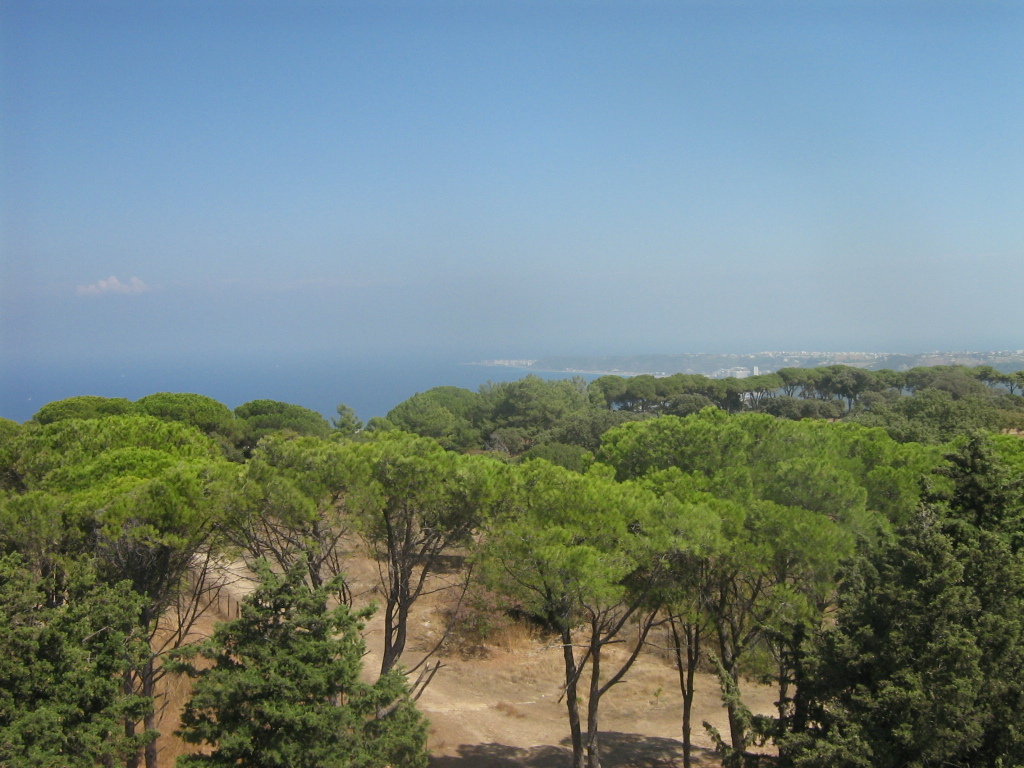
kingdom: Plantae
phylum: Tracheophyta
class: Pinopsida
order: Pinales
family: Pinaceae
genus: Pinus
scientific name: Pinus pinea
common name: Italian stone pine
